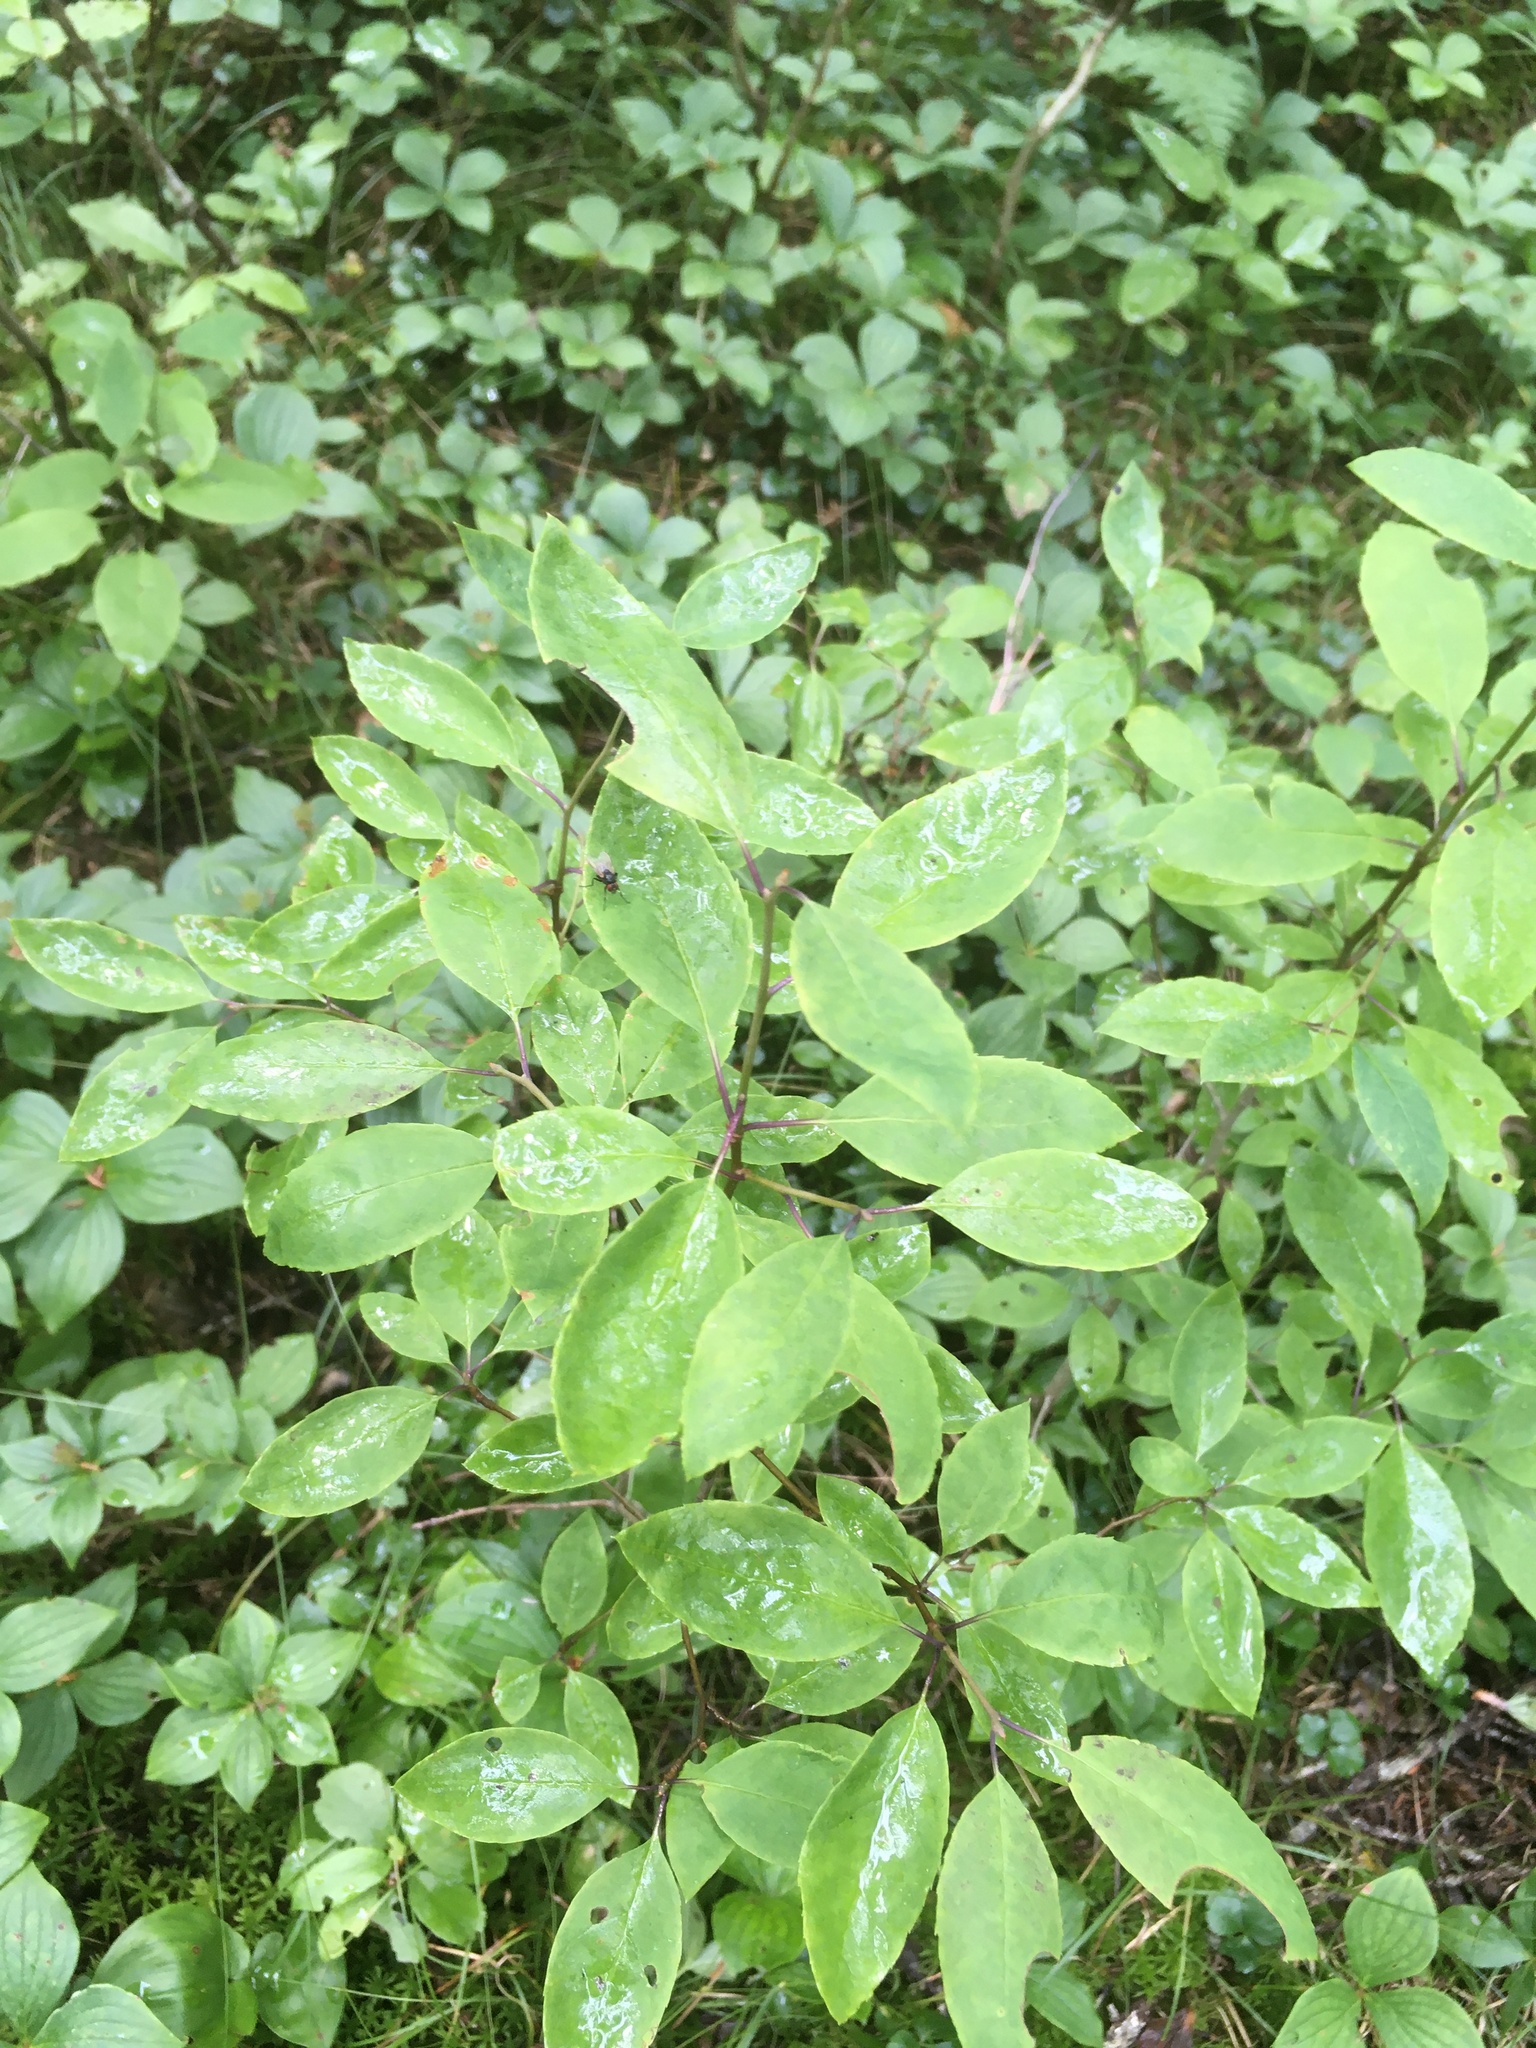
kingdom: Plantae
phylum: Tracheophyta
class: Magnoliopsida
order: Aquifoliales
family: Aquifoliaceae
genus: Ilex
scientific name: Ilex mucronata
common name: Catberry
